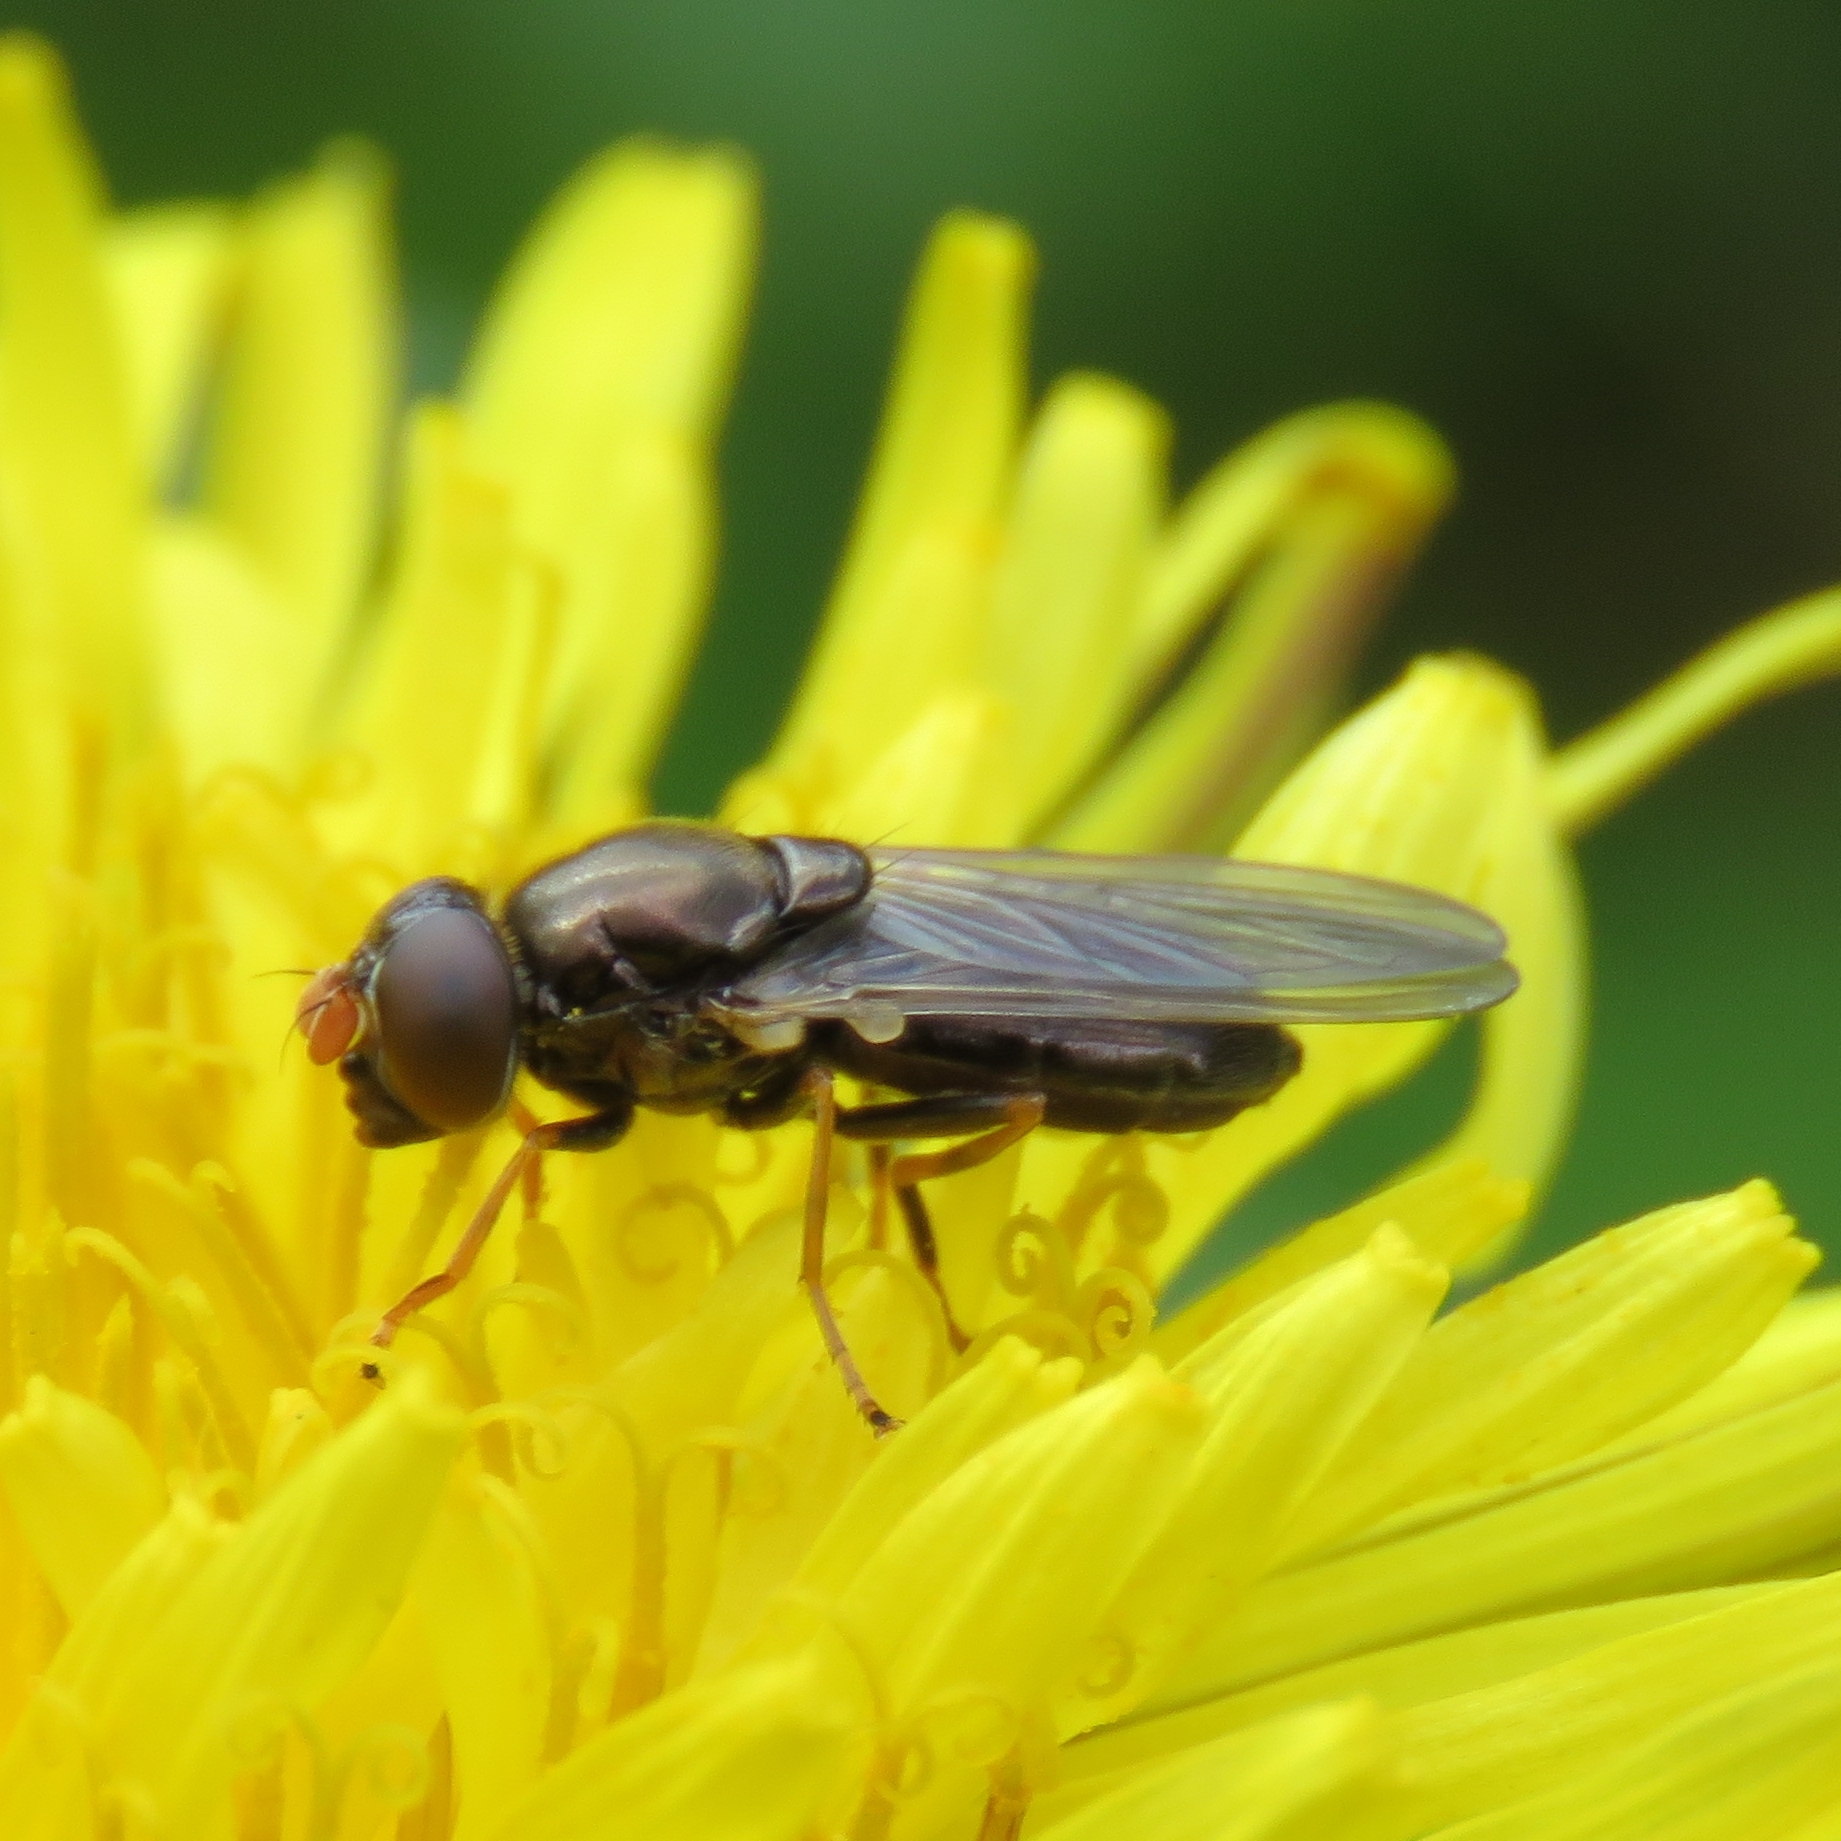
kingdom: Animalia
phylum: Arthropoda
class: Insecta
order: Diptera
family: Syrphidae
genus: Cheilosia
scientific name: Cheilosia pagana
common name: Hover fly
